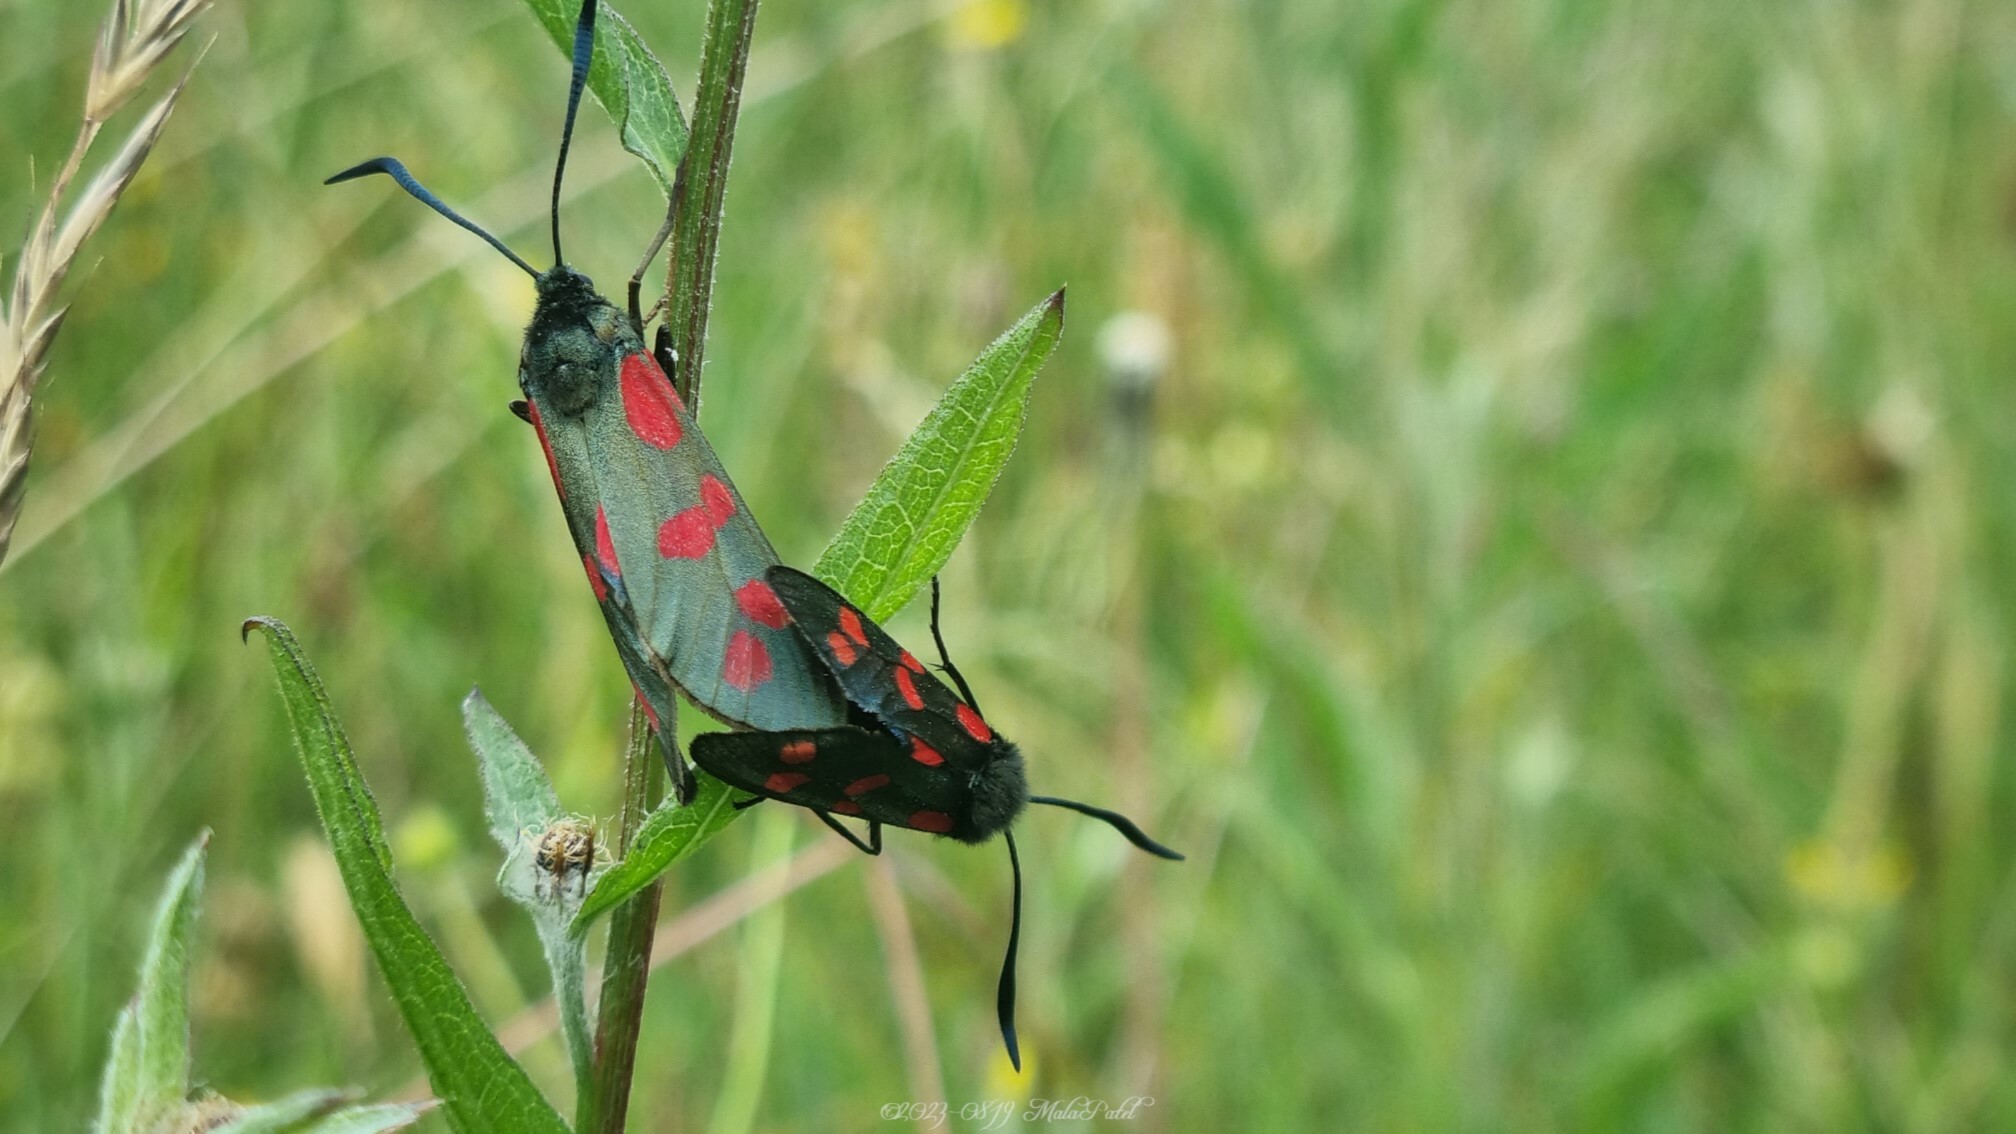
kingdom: Animalia
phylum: Arthropoda
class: Insecta
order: Lepidoptera
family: Zygaenidae
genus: Zygaena
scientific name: Zygaena filipendulae
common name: Six-spot burnet
